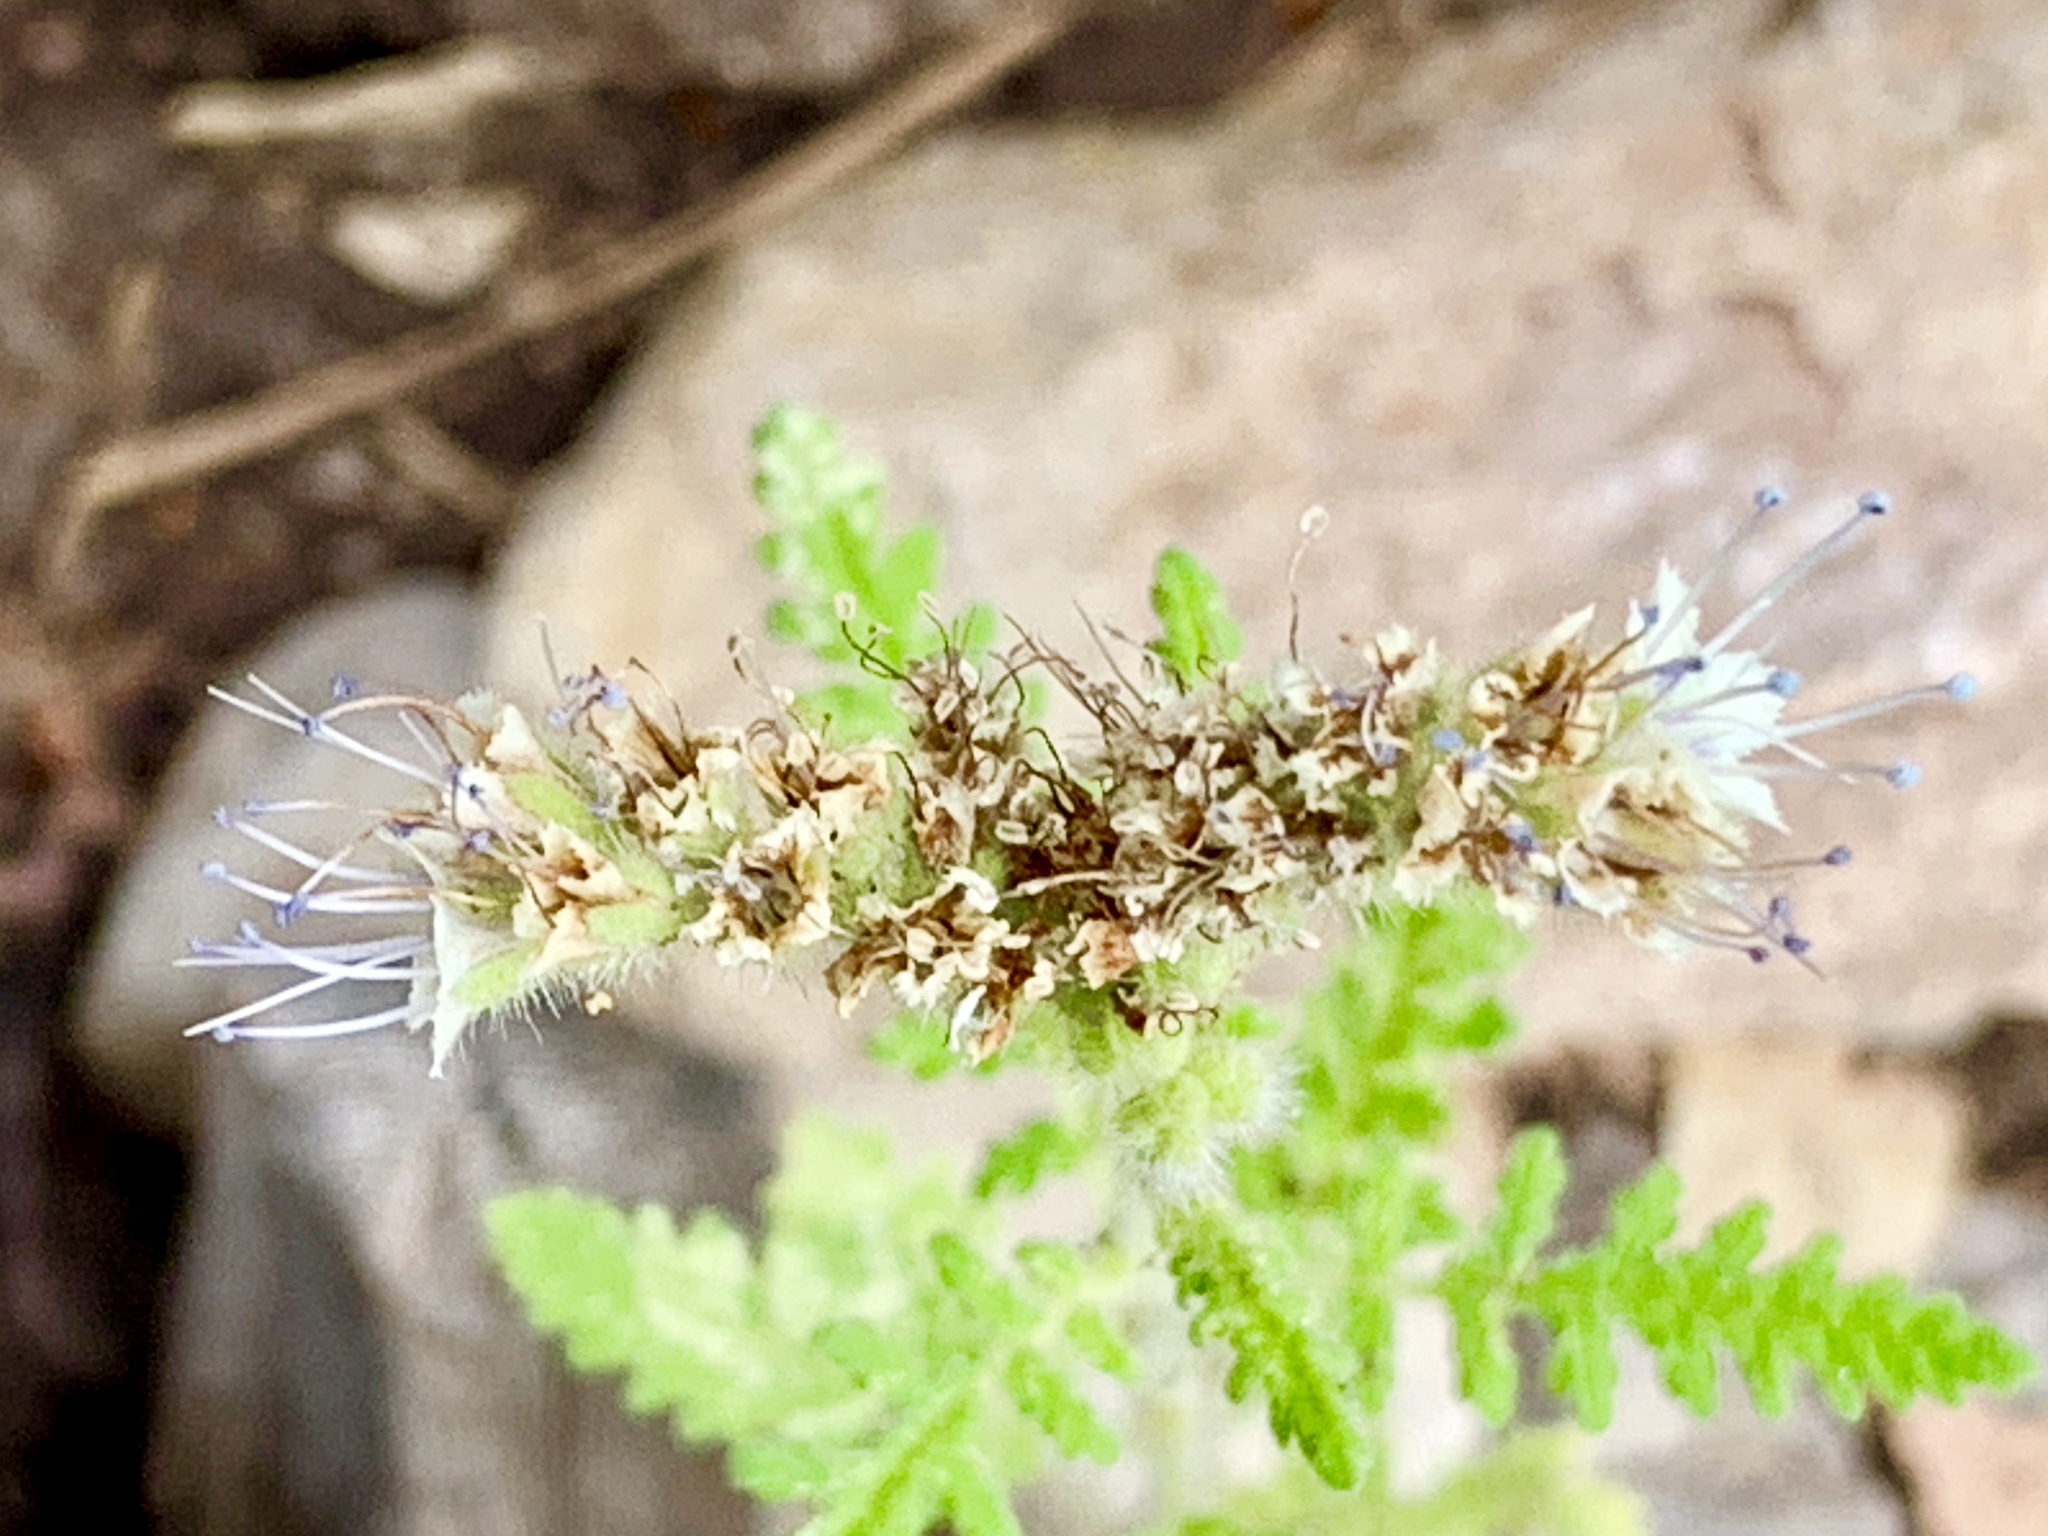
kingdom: Plantae
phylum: Tracheophyta
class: Magnoliopsida
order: Boraginales
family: Hydrophyllaceae
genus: Phacelia
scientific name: Phacelia alba
